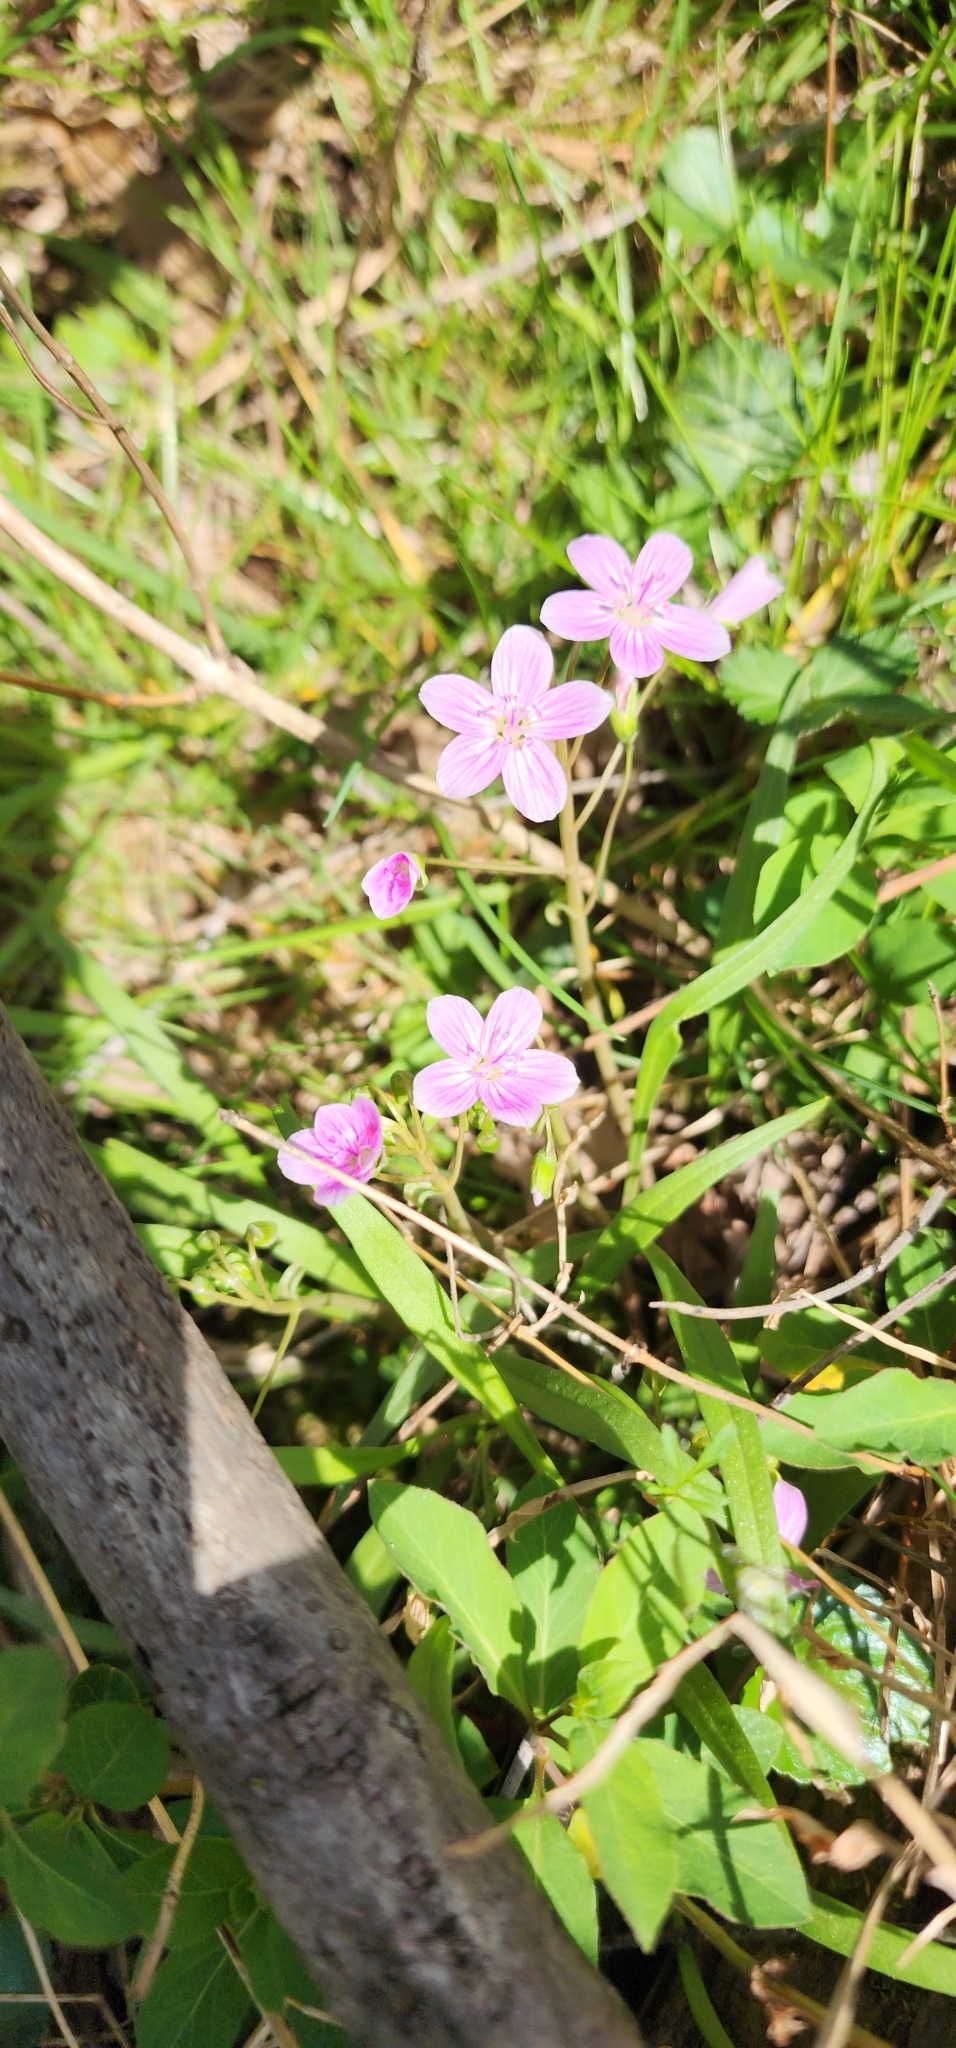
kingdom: Plantae
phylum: Tracheophyta
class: Magnoliopsida
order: Caryophyllales
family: Montiaceae
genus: Claytonia
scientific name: Claytonia virginica
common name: Virginia springbeauty
